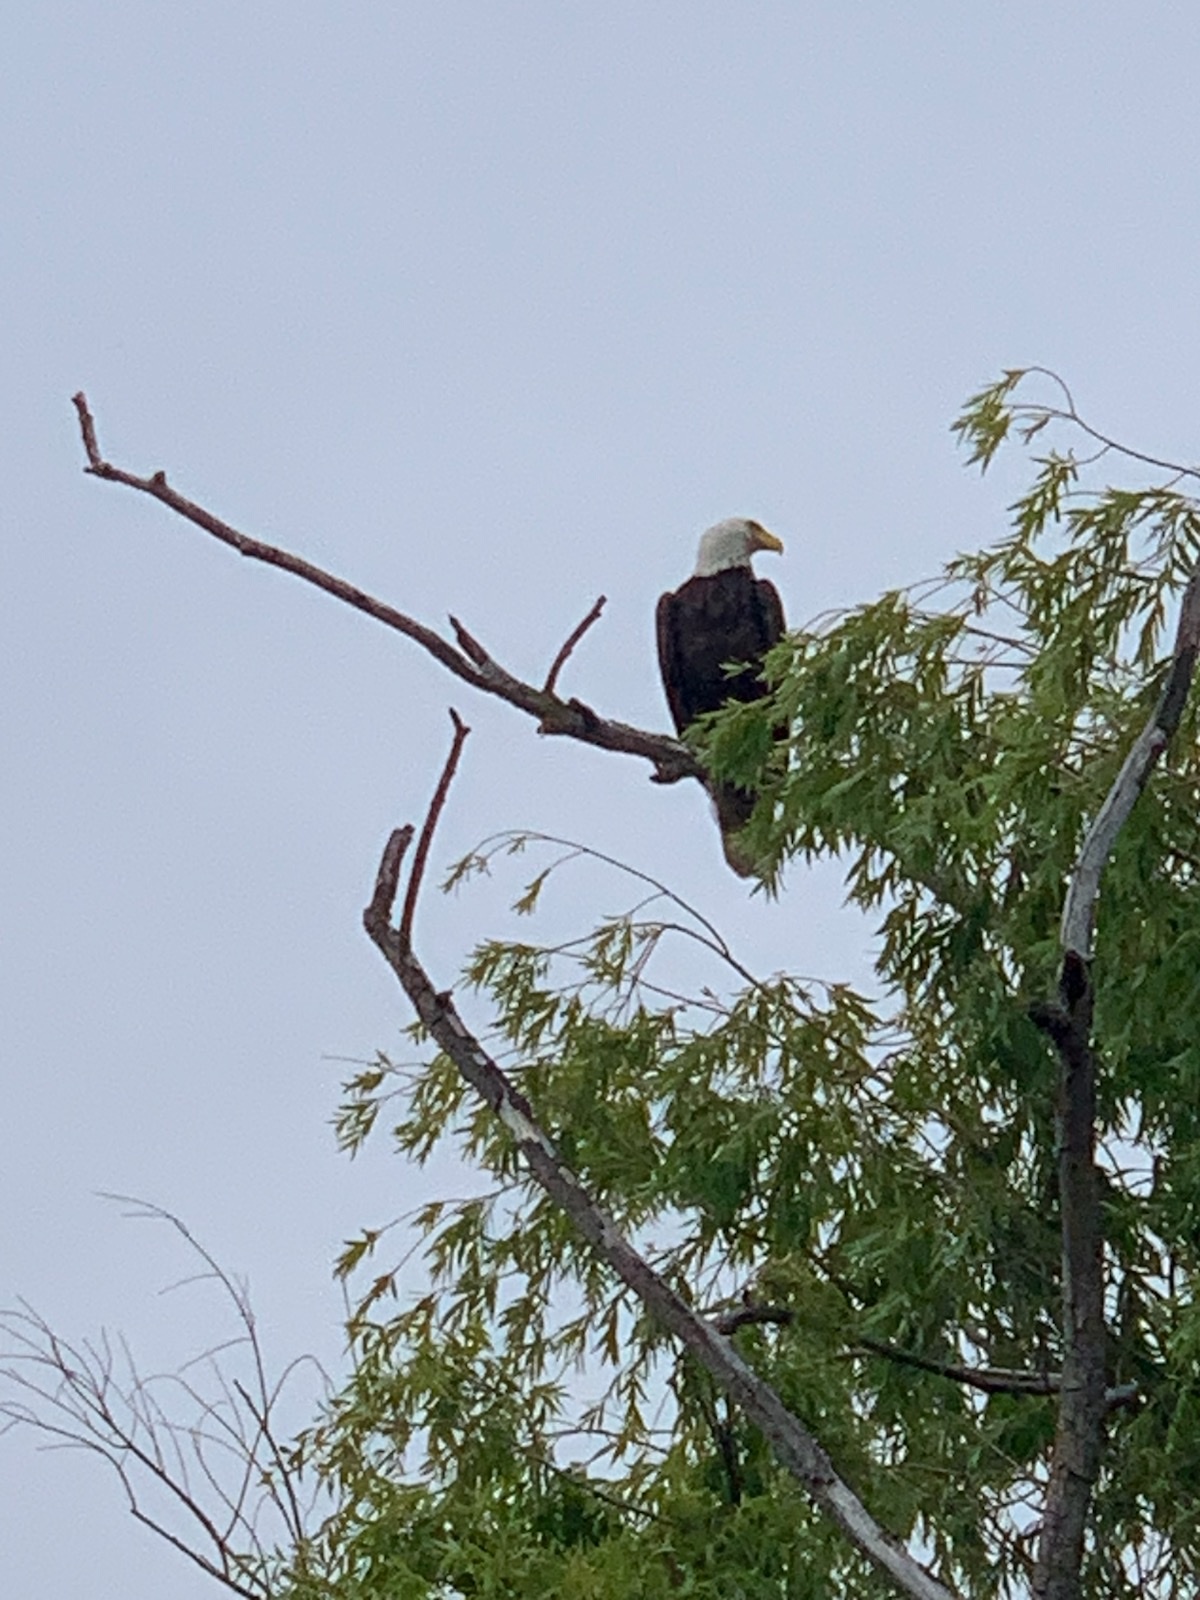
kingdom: Animalia
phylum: Chordata
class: Aves
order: Accipitriformes
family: Accipitridae
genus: Haliaeetus
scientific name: Haliaeetus leucocephalus
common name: Bald eagle
